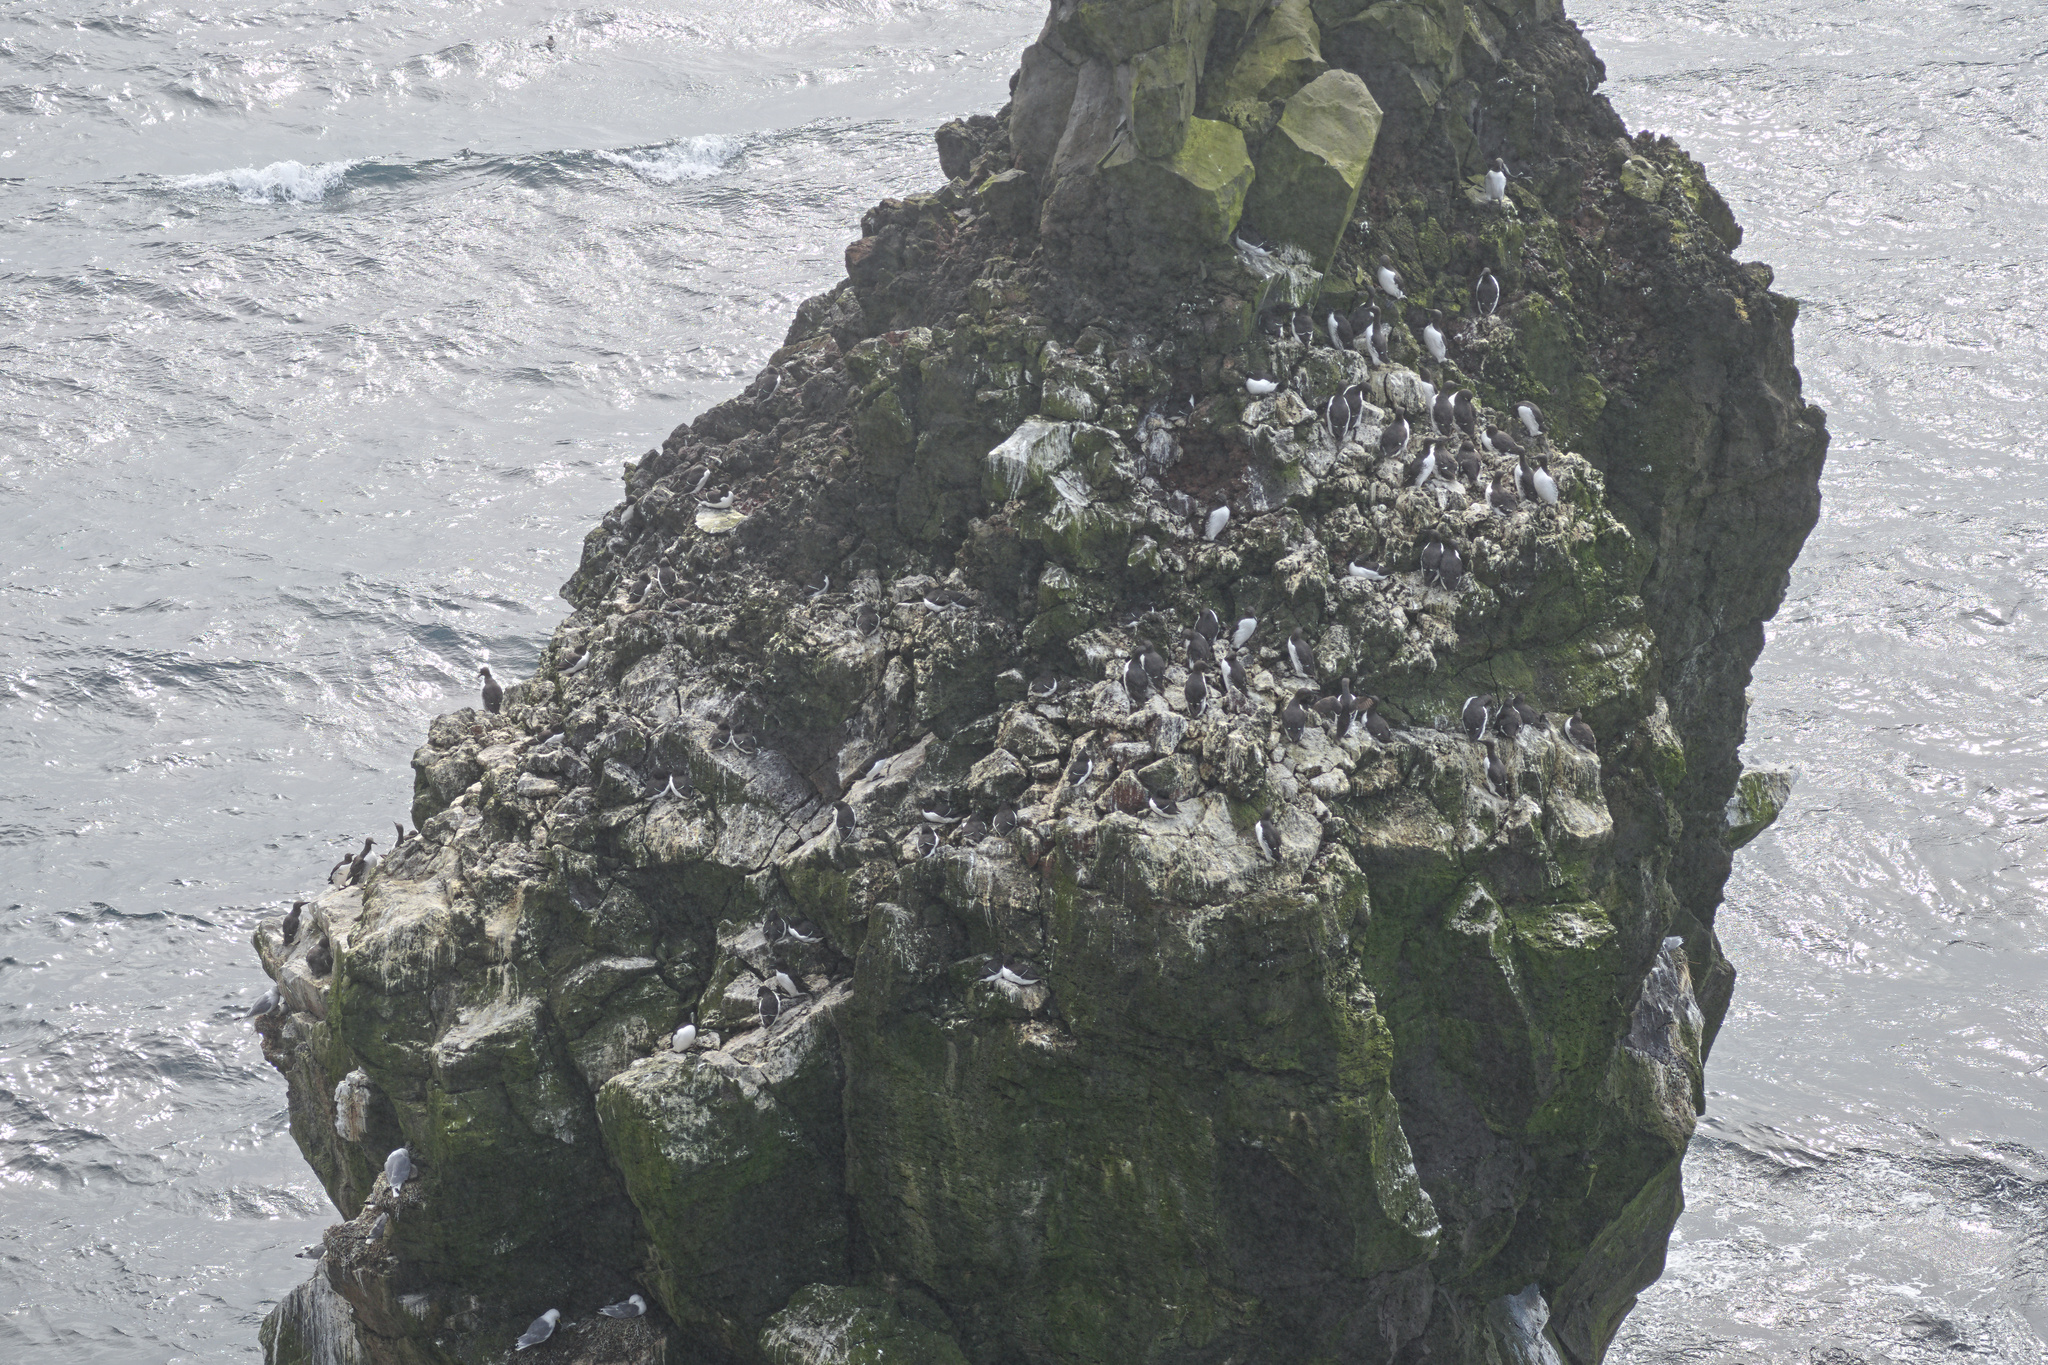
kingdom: Animalia
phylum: Chordata
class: Aves
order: Charadriiformes
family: Alcidae
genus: Uria
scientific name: Uria aalge
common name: Common murre
